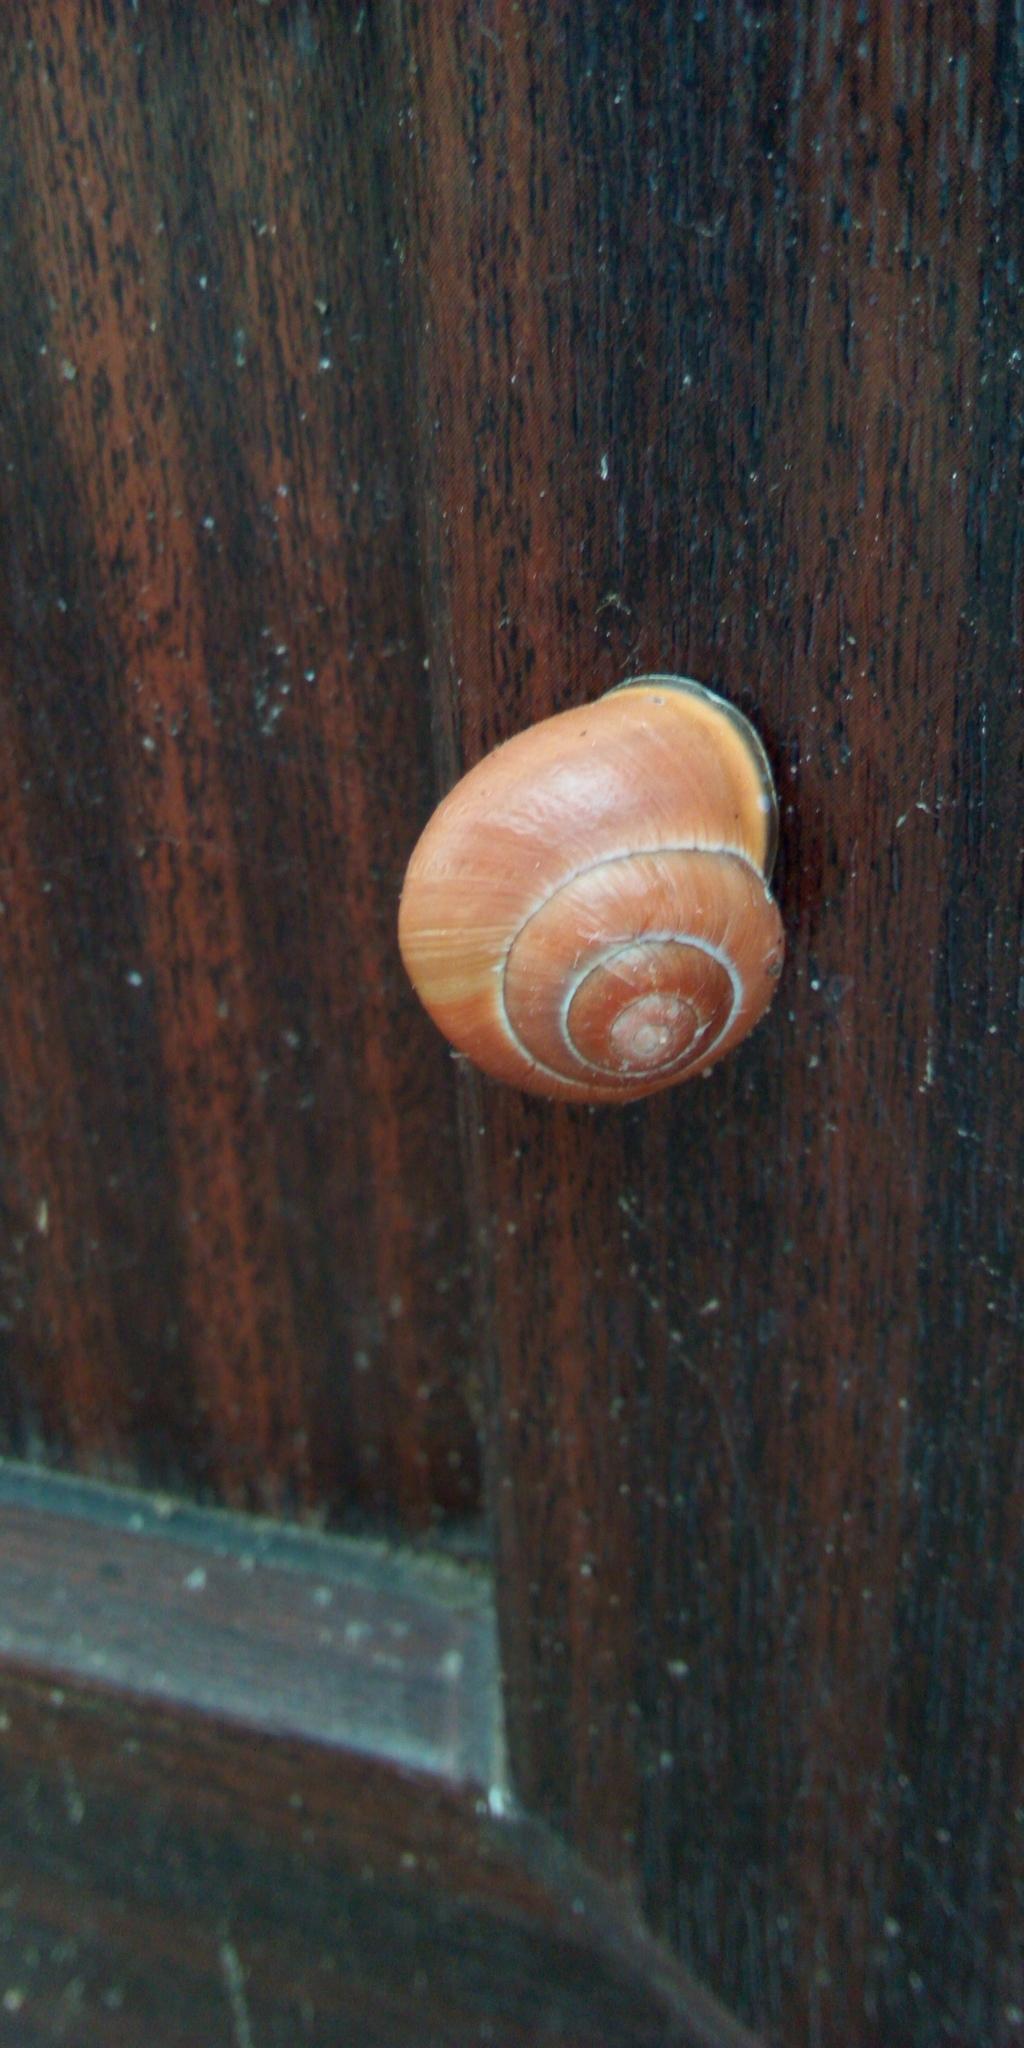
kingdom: Animalia
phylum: Mollusca
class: Gastropoda
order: Stylommatophora
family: Helicidae
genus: Cepaea
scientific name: Cepaea nemoralis
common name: Grovesnail
